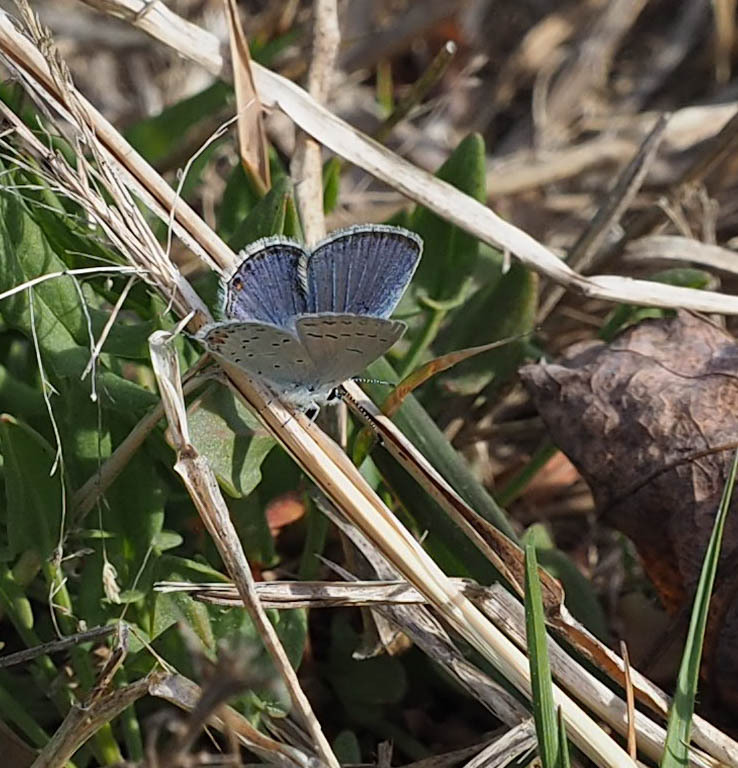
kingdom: Animalia
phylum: Arthropoda
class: Insecta
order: Lepidoptera
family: Lycaenidae
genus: Elkalyce
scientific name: Elkalyce comyntas
